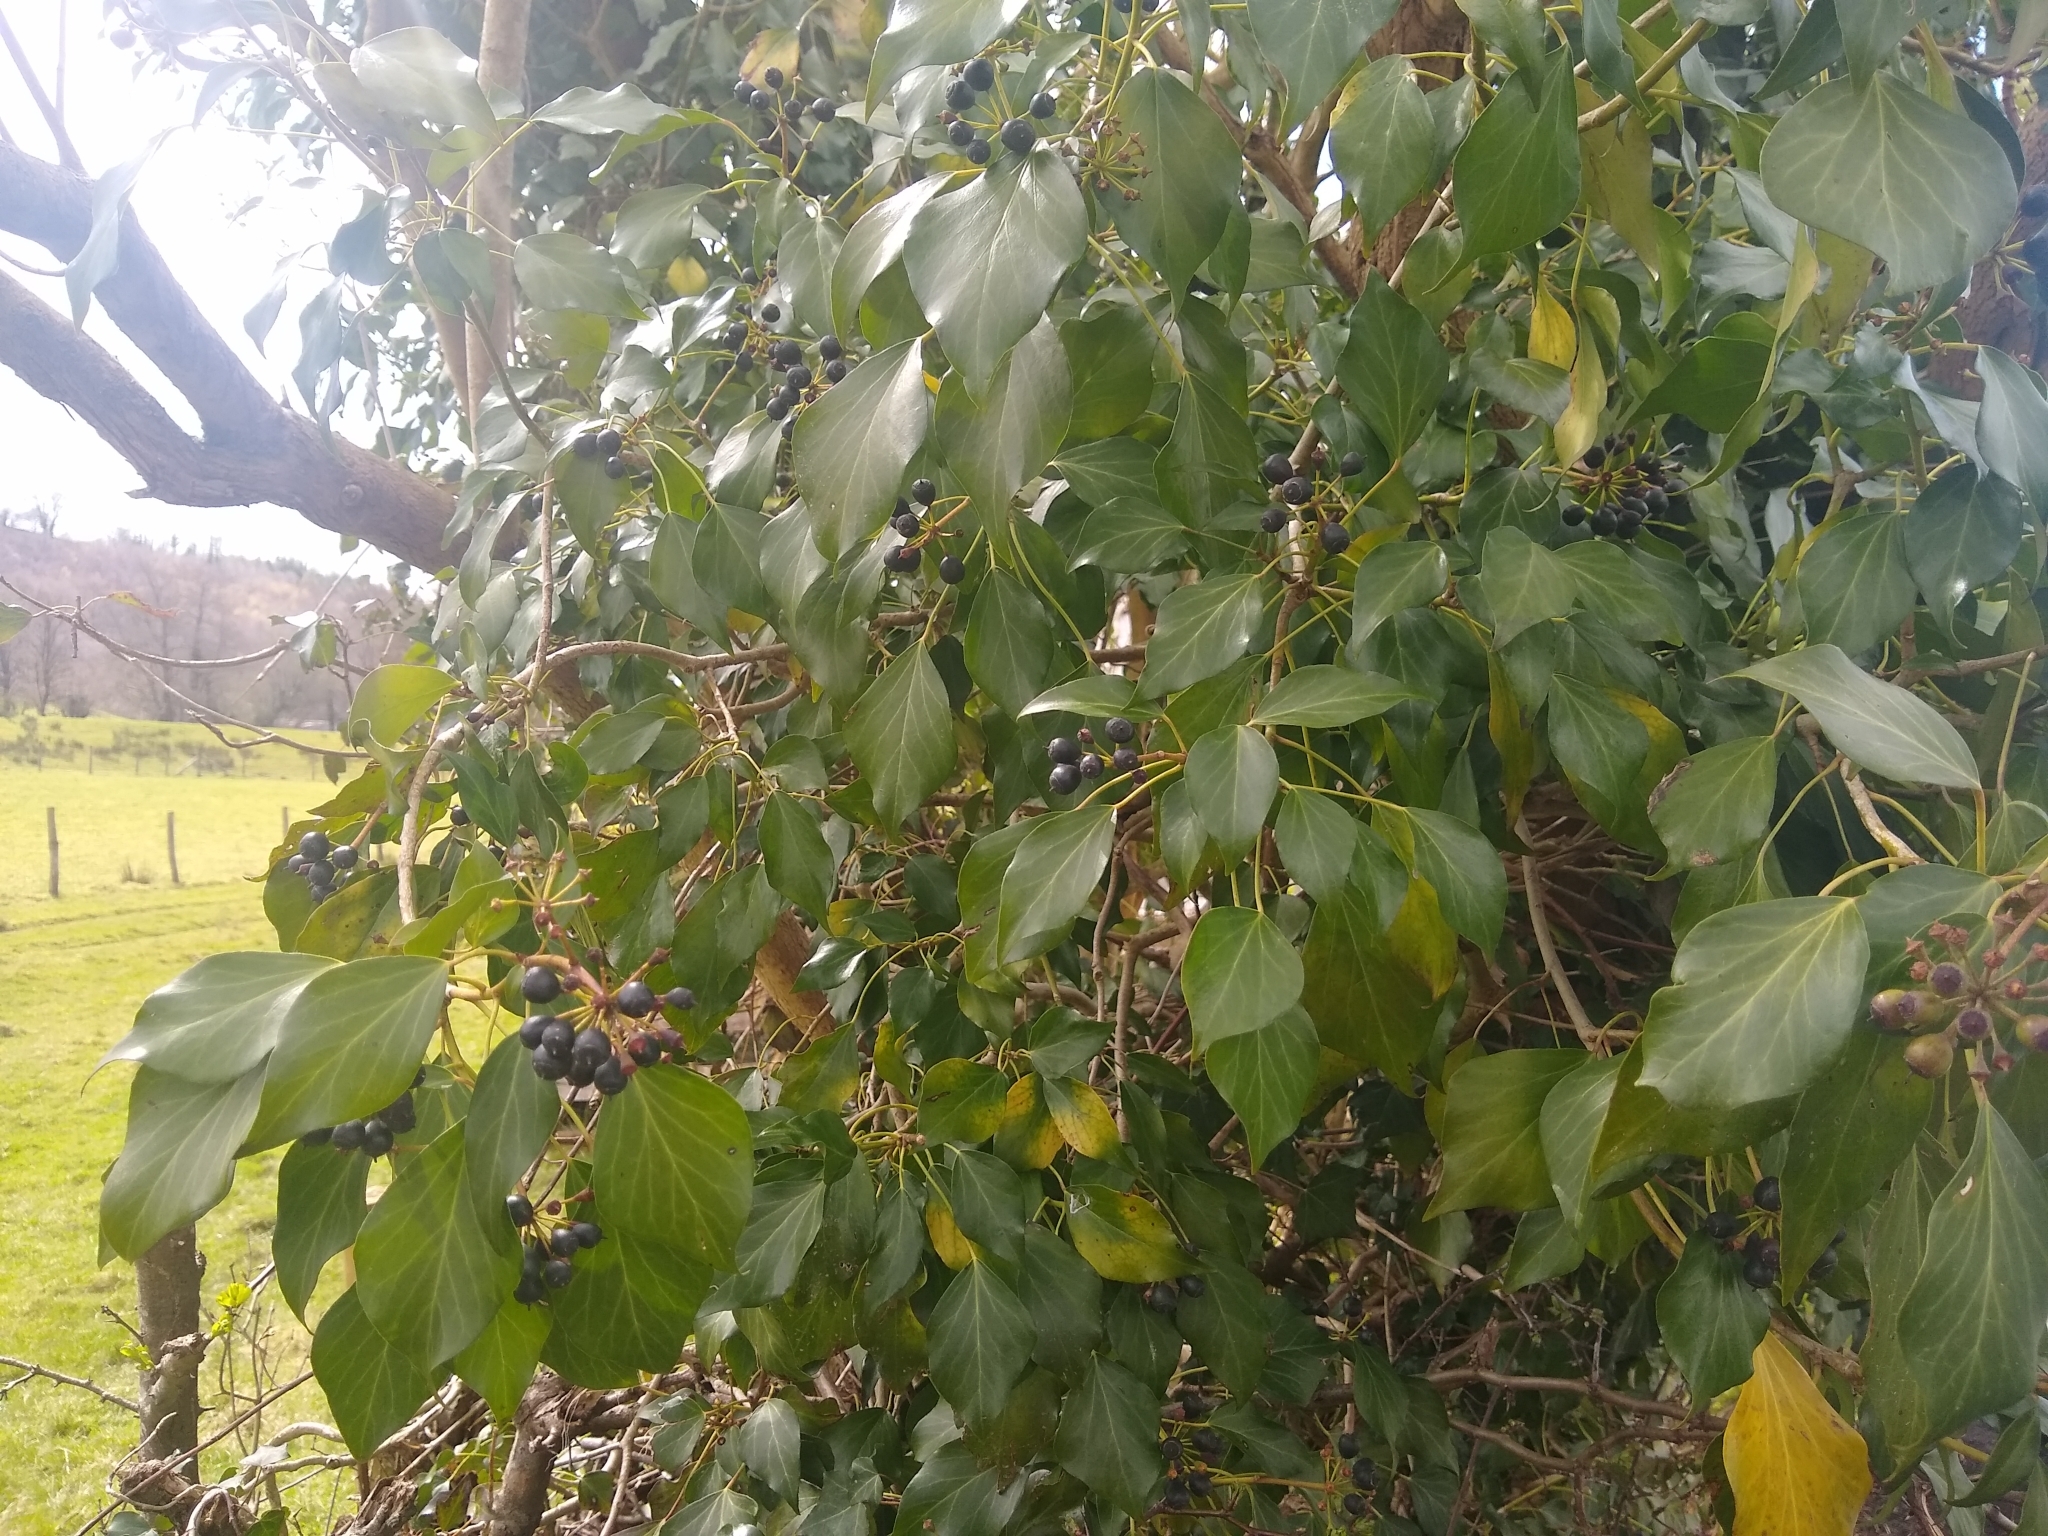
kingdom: Plantae
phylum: Tracheophyta
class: Magnoliopsida
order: Apiales
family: Araliaceae
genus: Hedera
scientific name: Hedera helix
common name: Ivy
